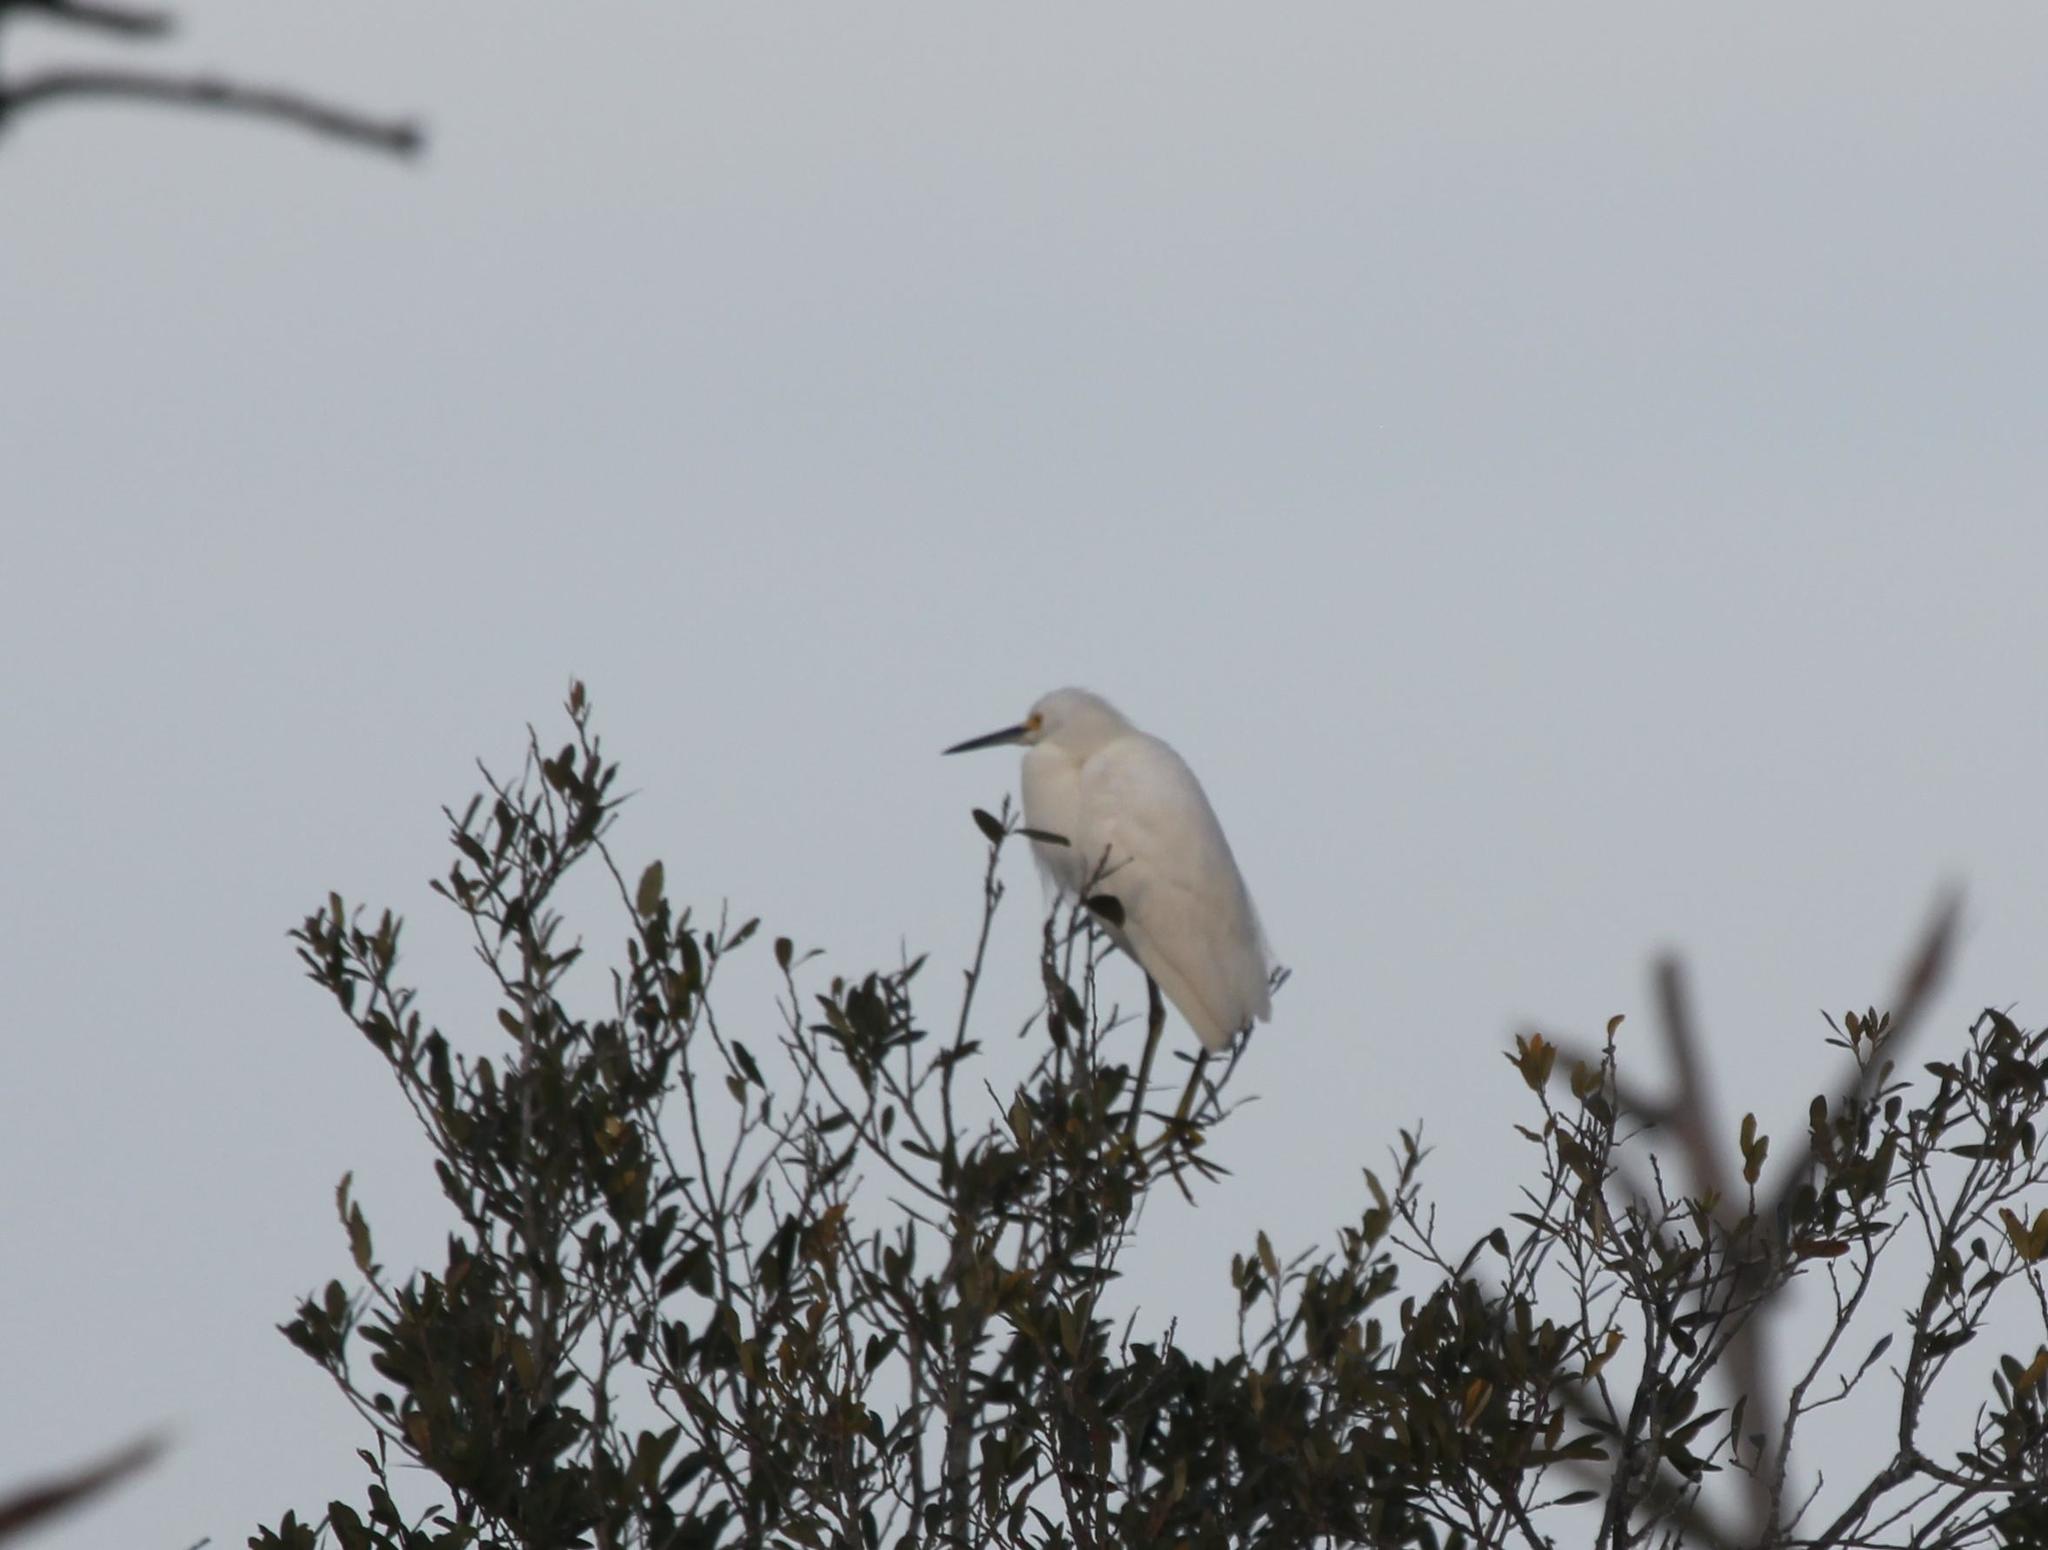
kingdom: Animalia
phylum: Chordata
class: Aves
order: Pelecaniformes
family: Ardeidae
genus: Egretta
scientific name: Egretta thula
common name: Snowy egret
